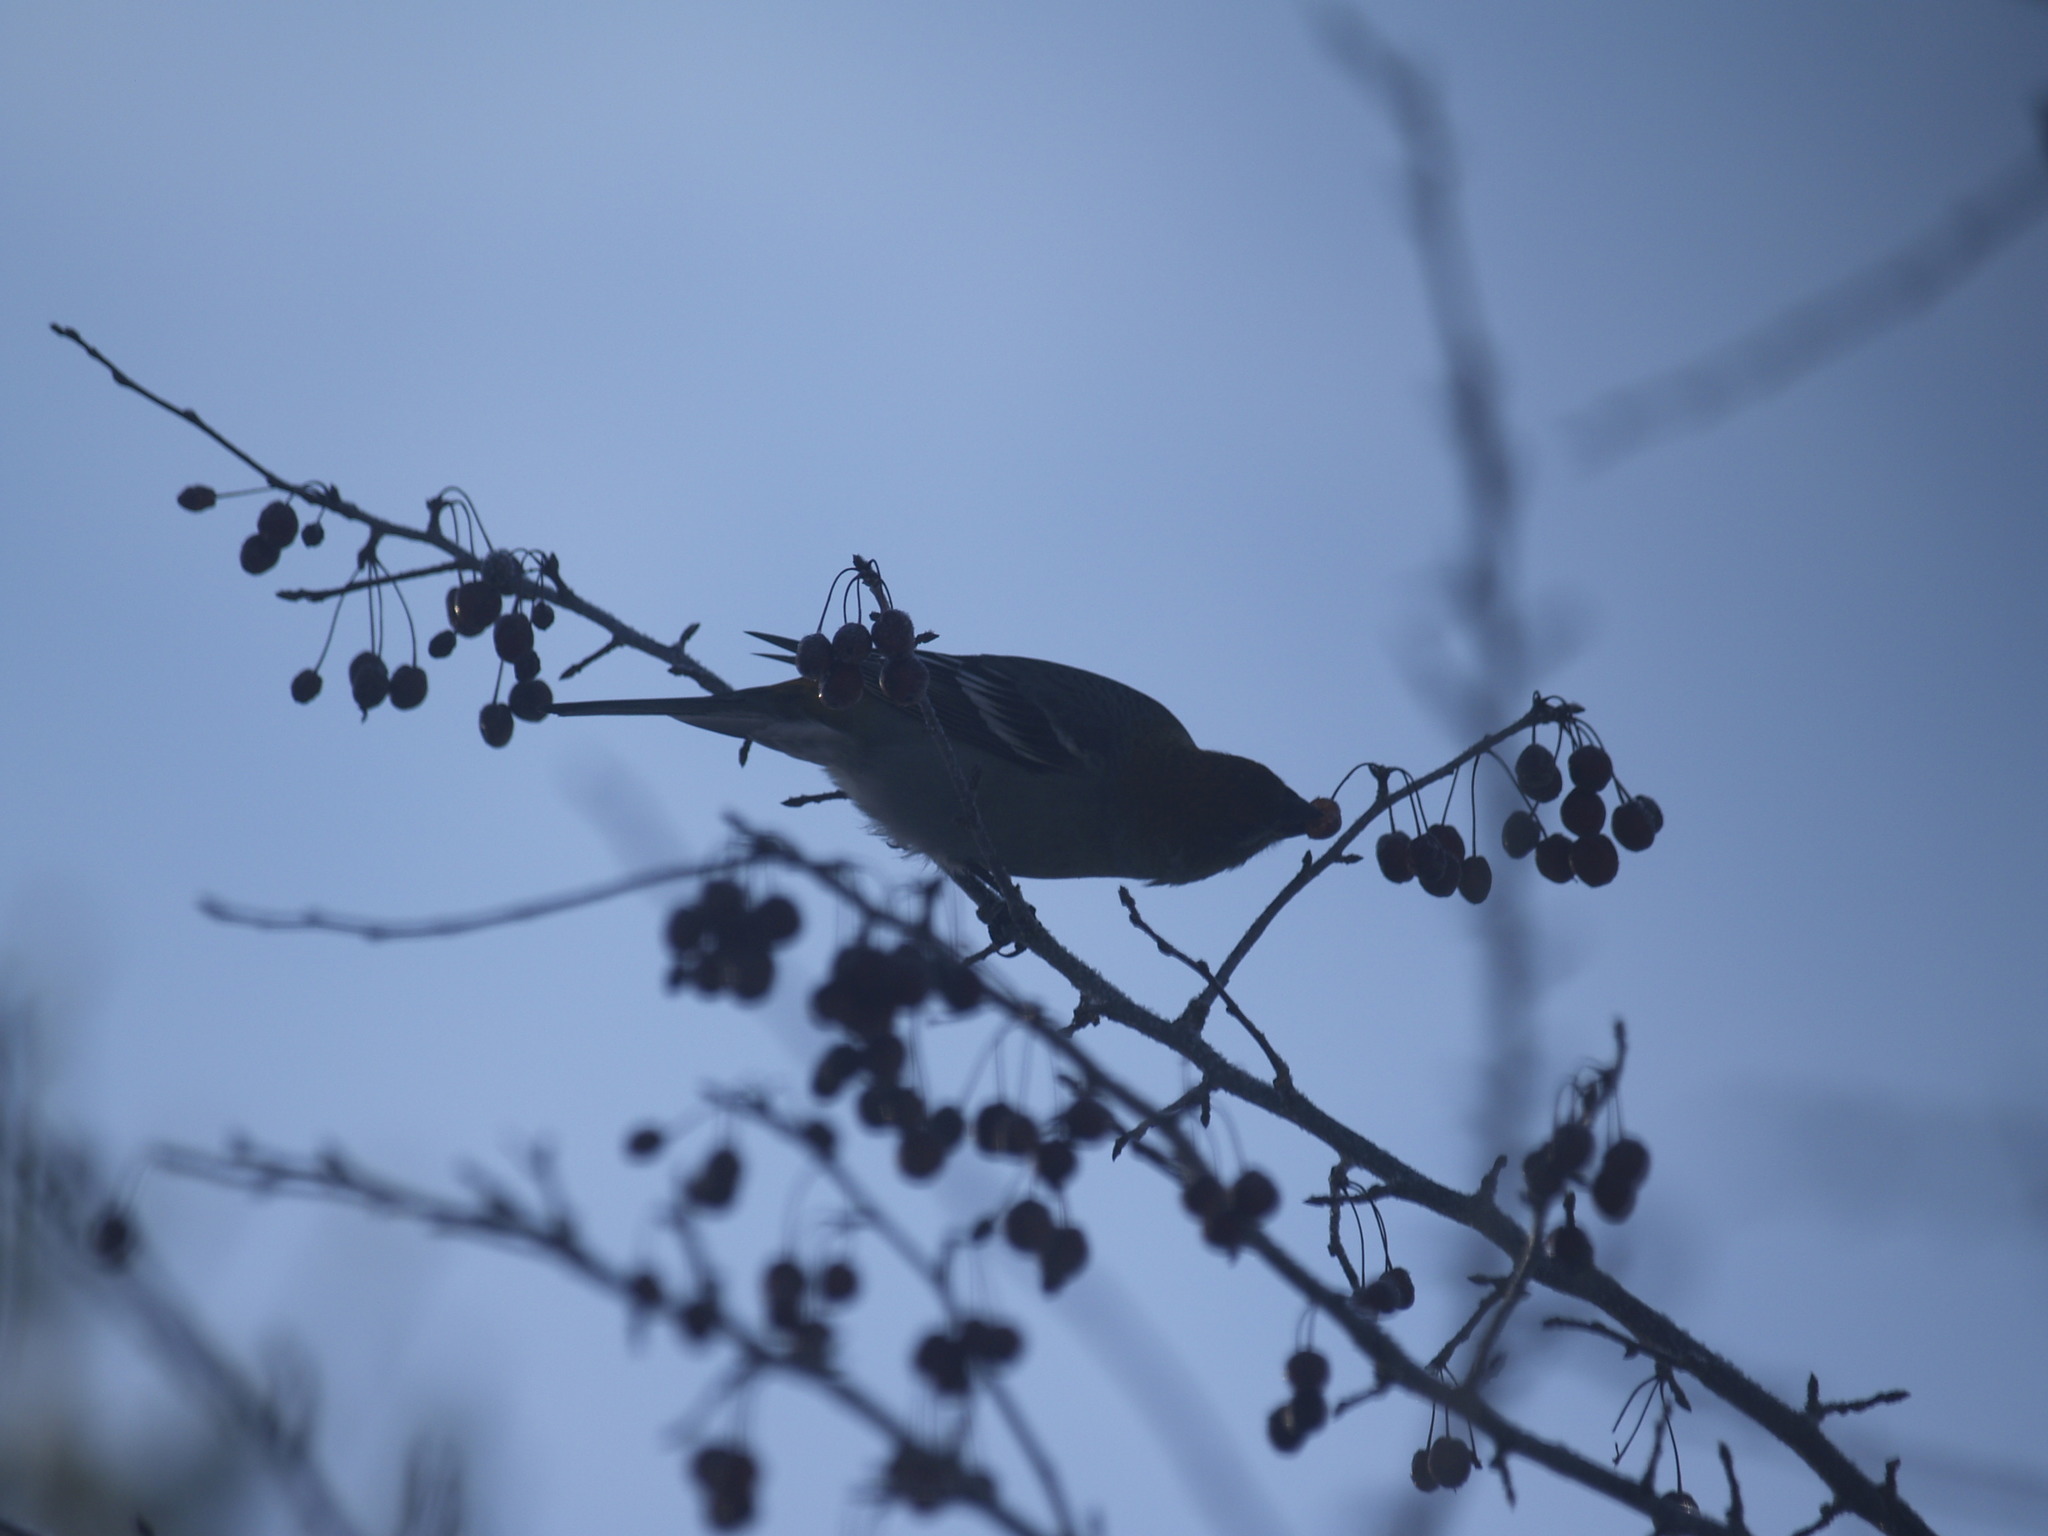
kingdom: Animalia
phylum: Chordata
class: Aves
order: Passeriformes
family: Fringillidae
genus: Spinus
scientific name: Spinus tristis
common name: American goldfinch
